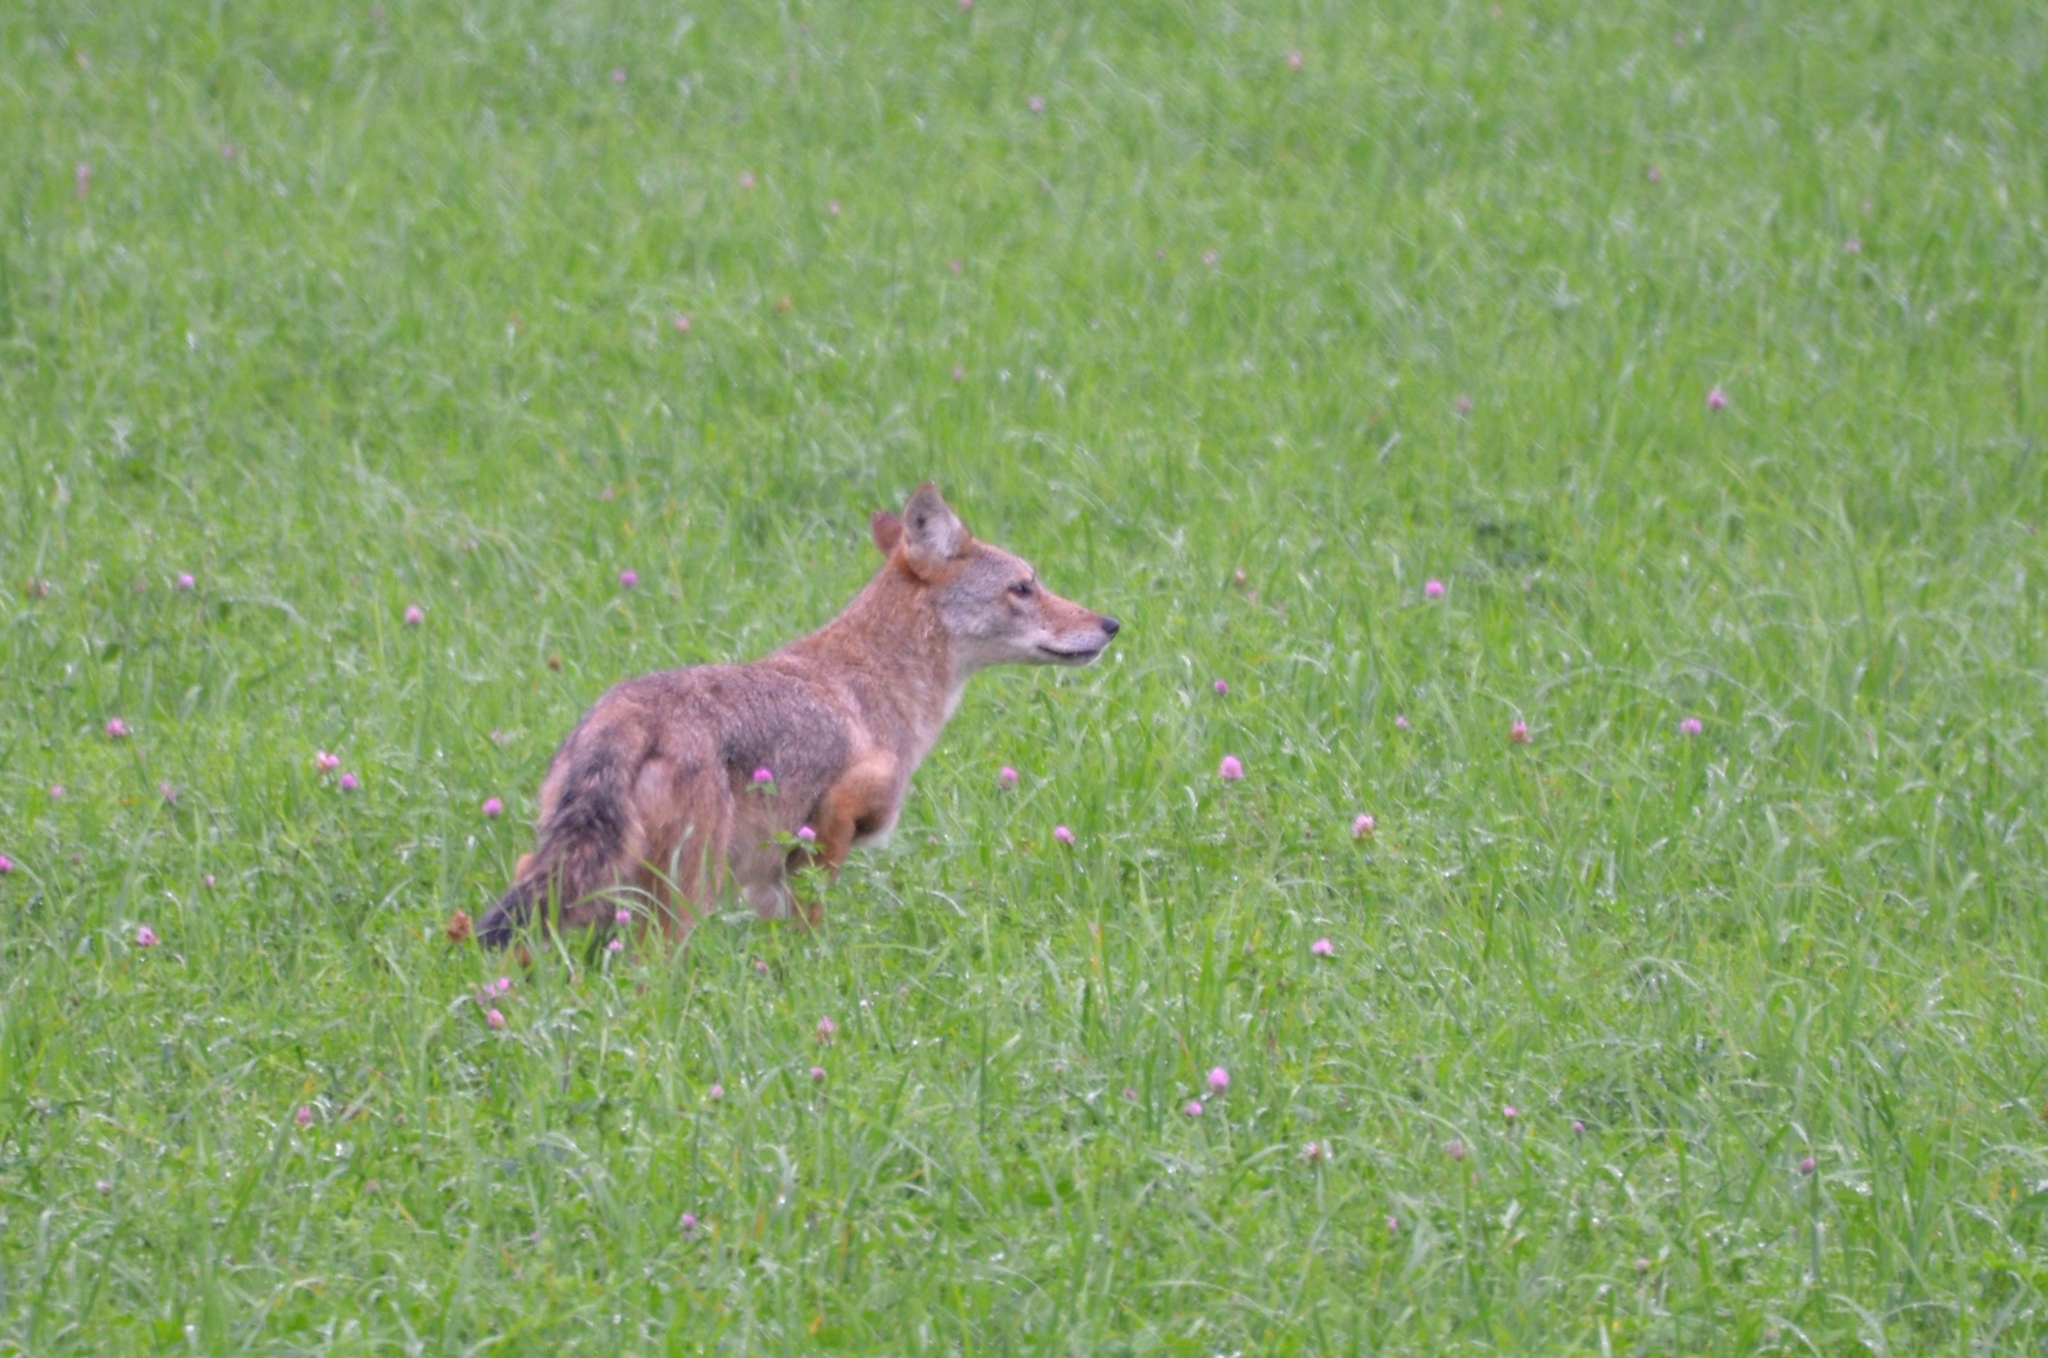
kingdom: Animalia
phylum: Chordata
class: Mammalia
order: Carnivora
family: Canidae
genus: Canis
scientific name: Canis latrans
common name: Coyote
